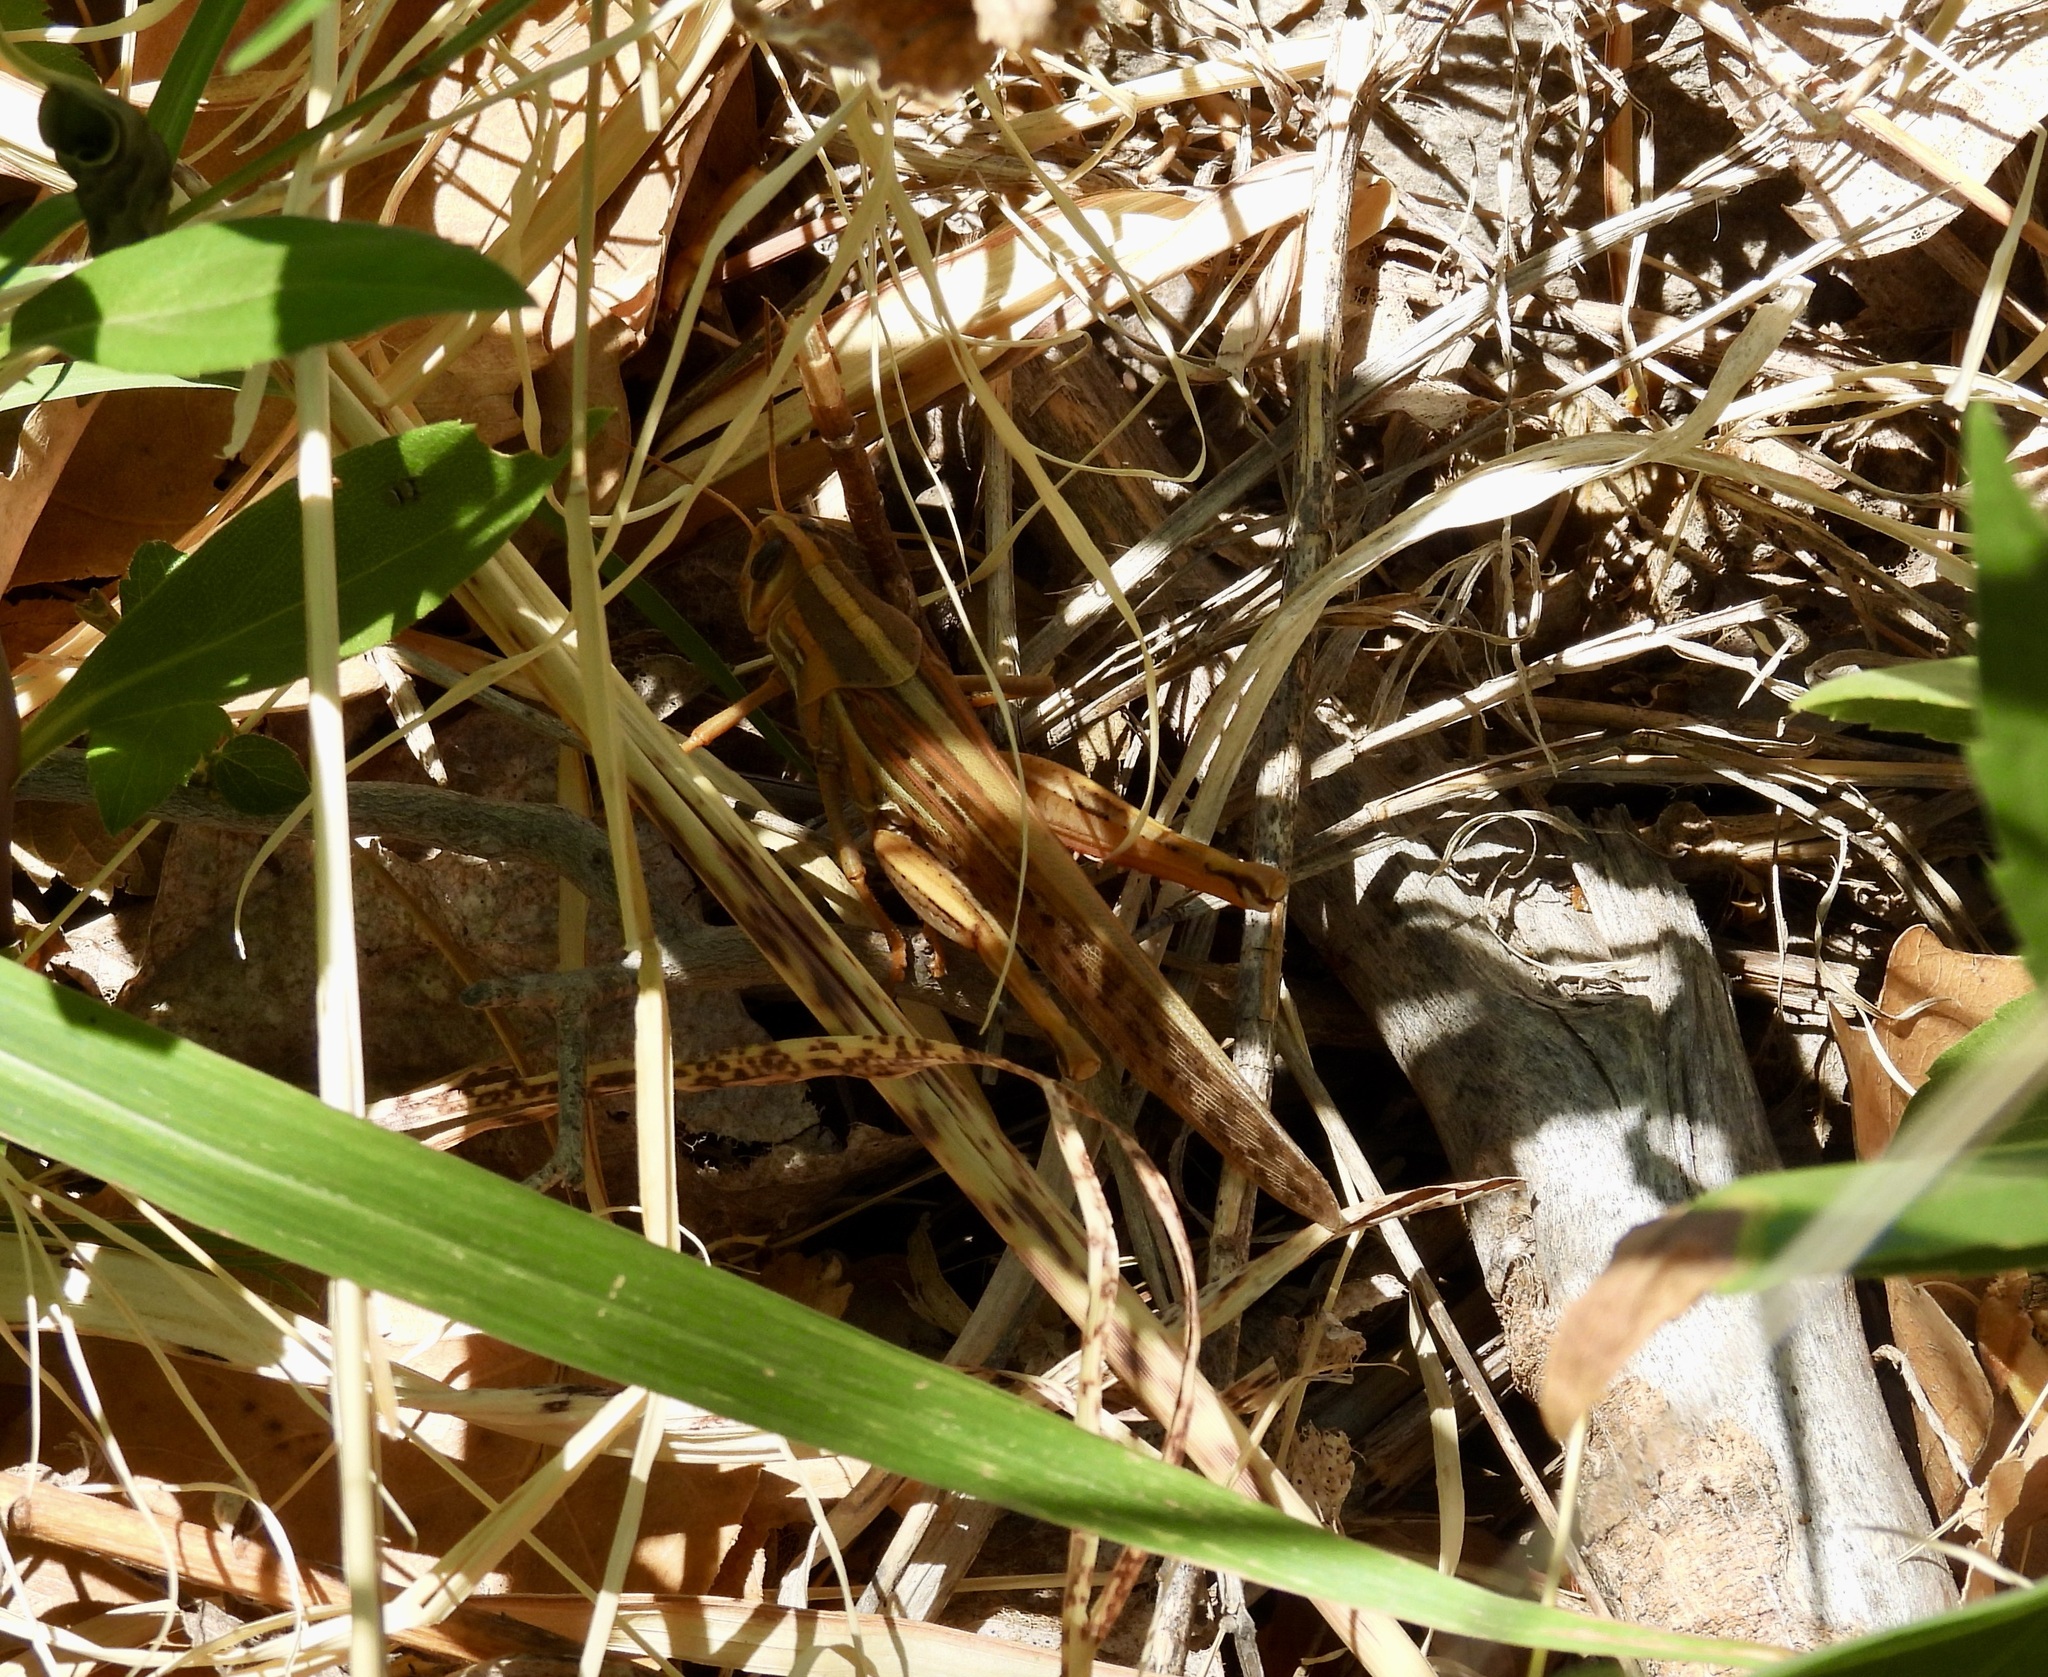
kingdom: Animalia
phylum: Arthropoda
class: Insecta
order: Orthoptera
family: Acrididae
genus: Schistocerca
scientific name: Schistocerca americana
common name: American bird locust
